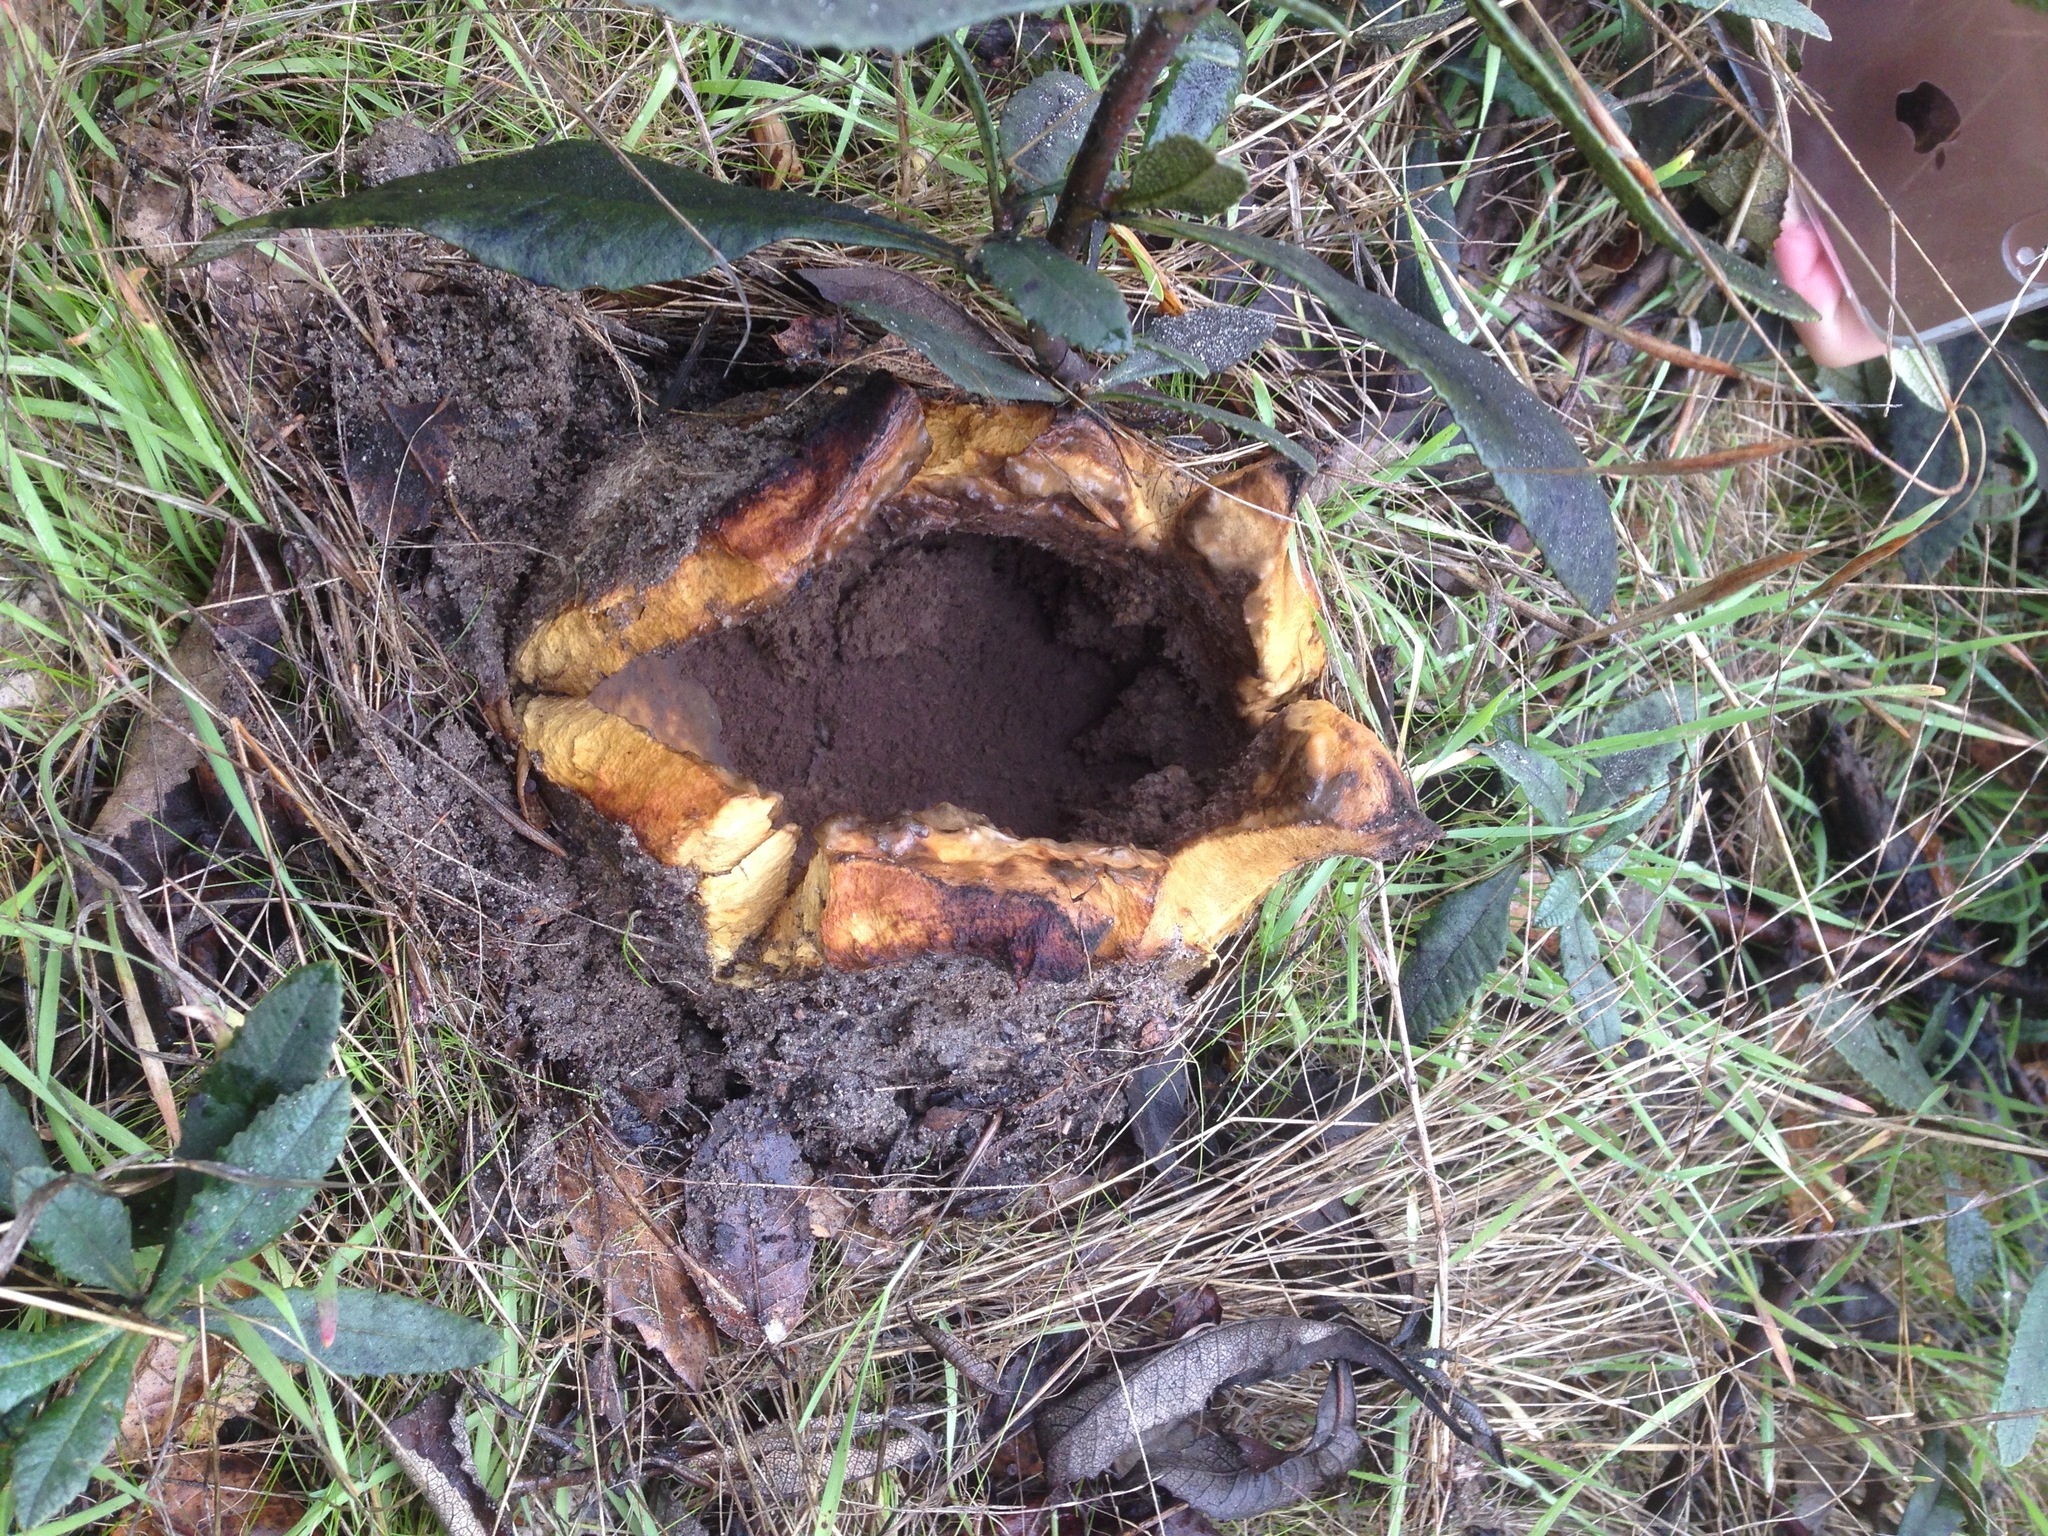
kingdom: Fungi
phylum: Basidiomycota
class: Agaricomycetes
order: Boletales
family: Sclerodermataceae
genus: Scleroderma
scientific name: Scleroderma polyrhizum
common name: Many-rooted earthball
